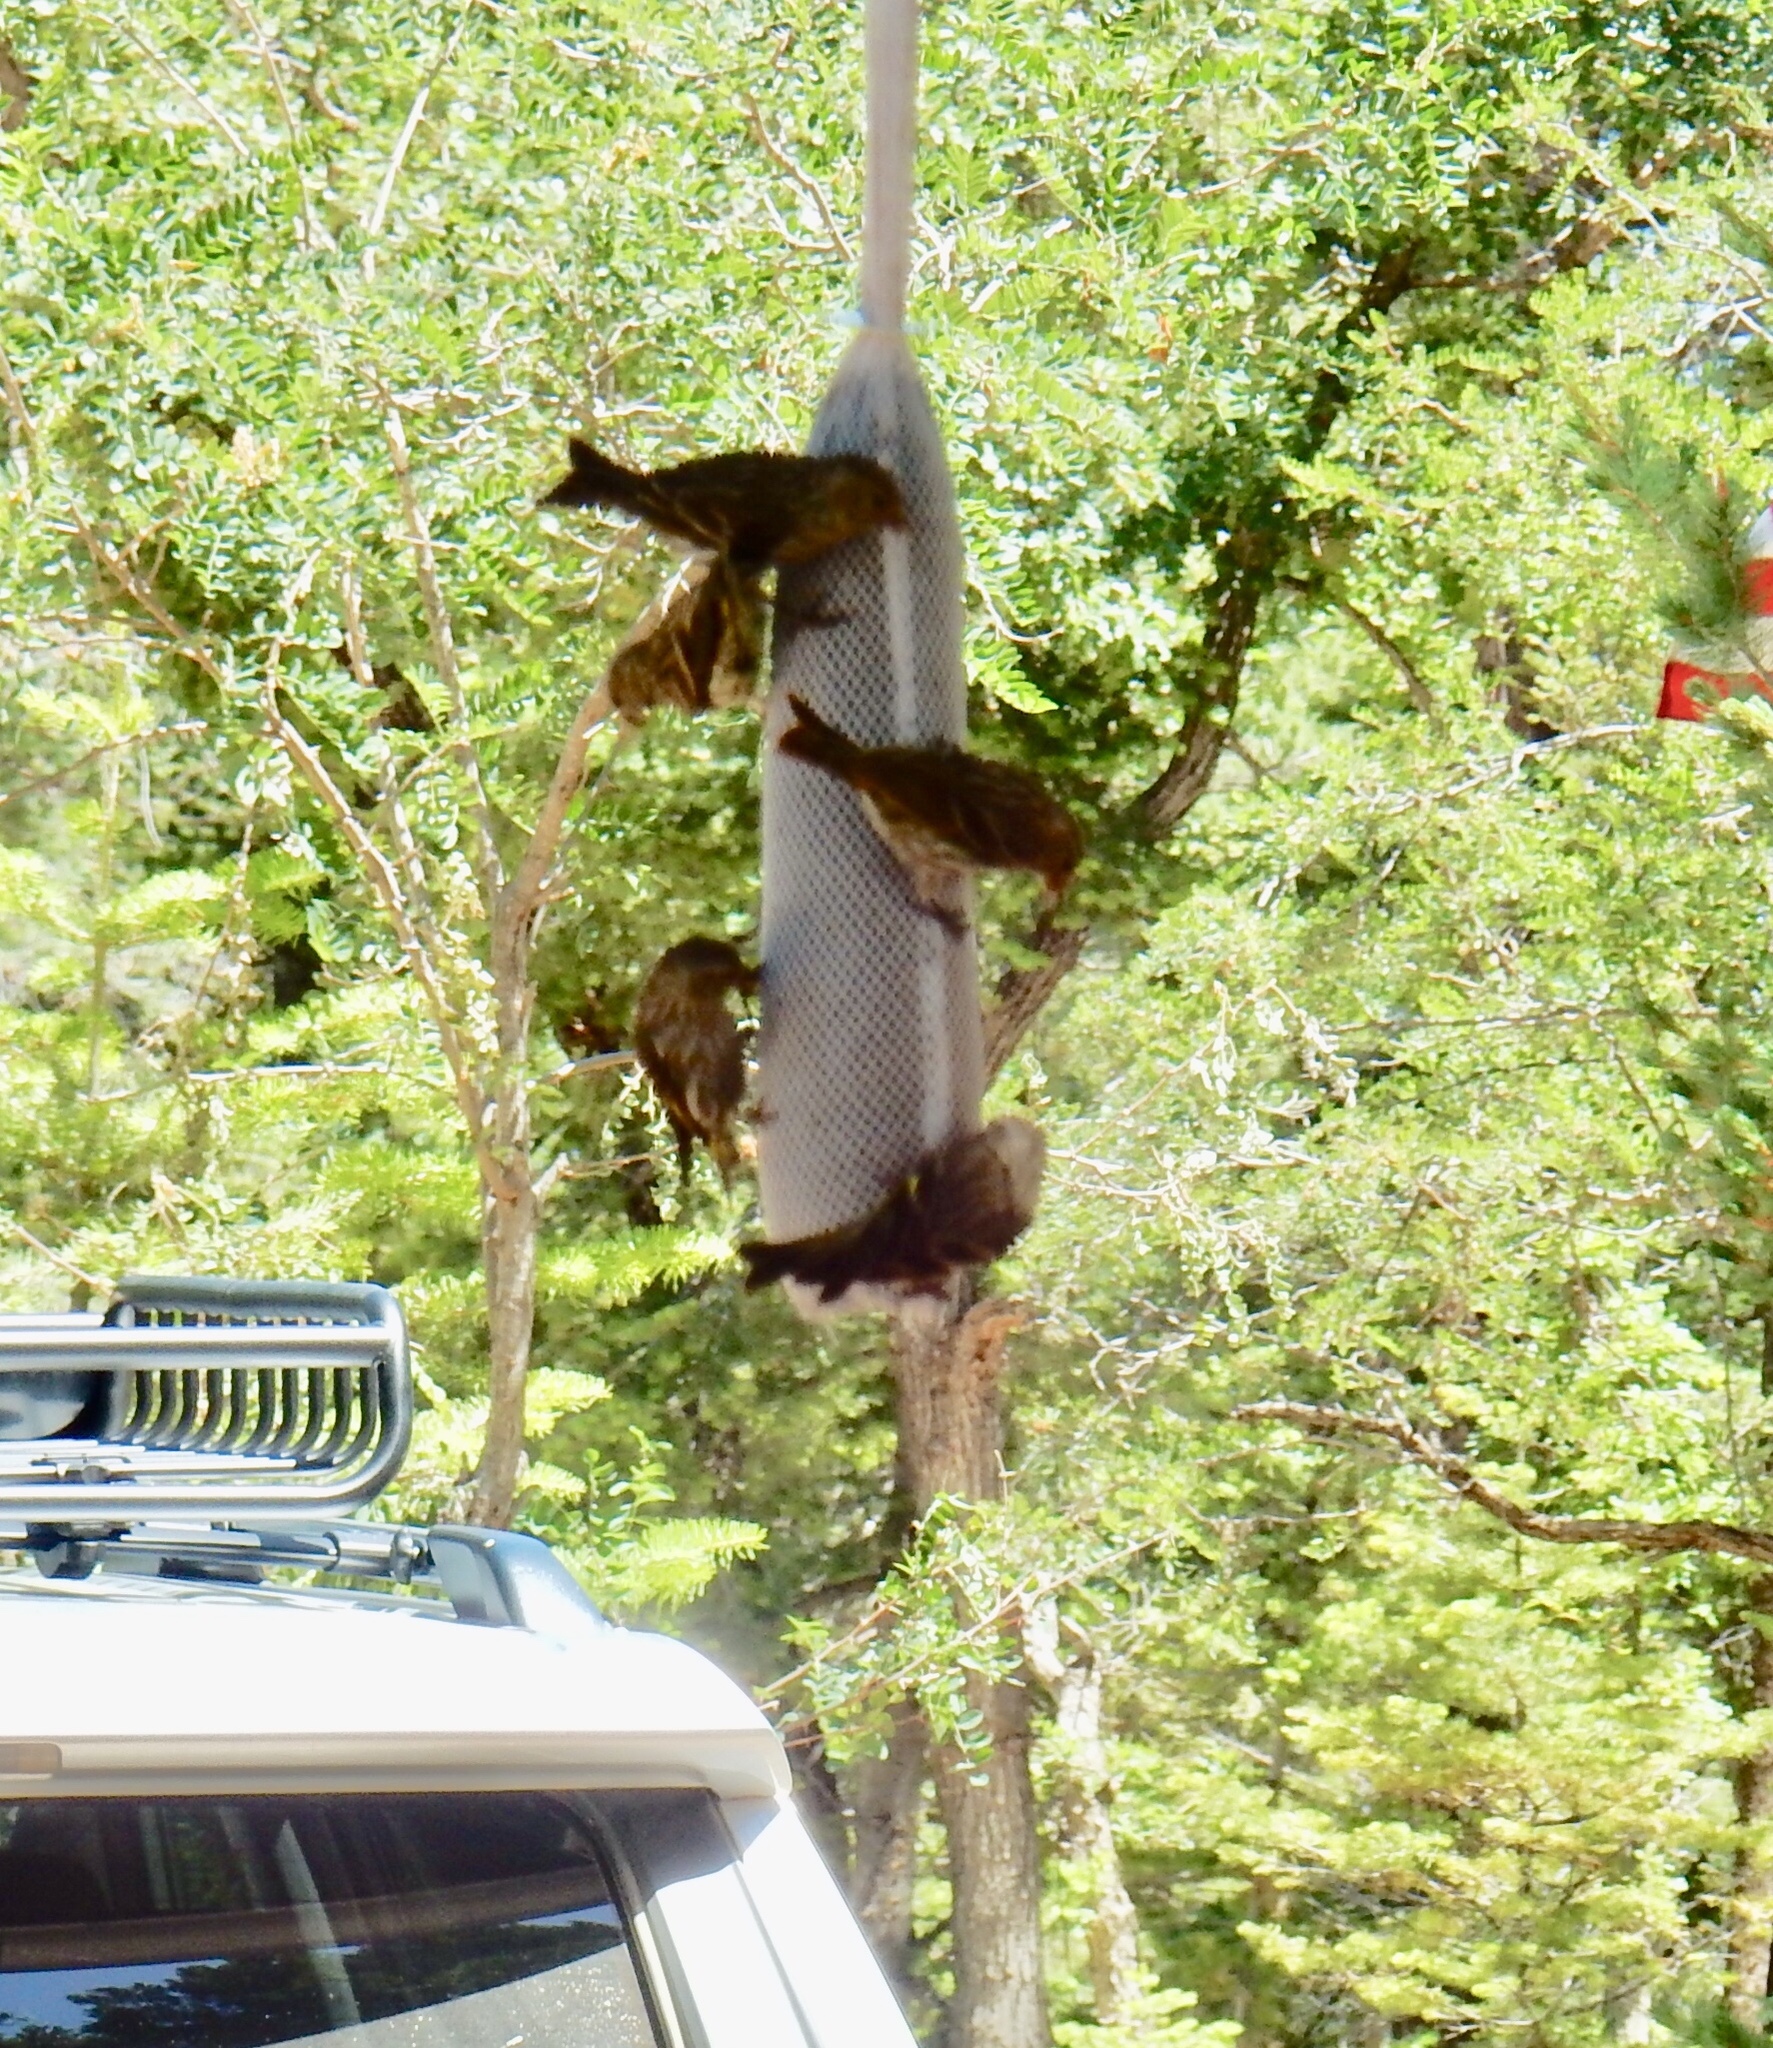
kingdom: Animalia
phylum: Chordata
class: Aves
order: Passeriformes
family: Fringillidae
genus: Spinus
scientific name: Spinus pinus
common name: Pine siskin
